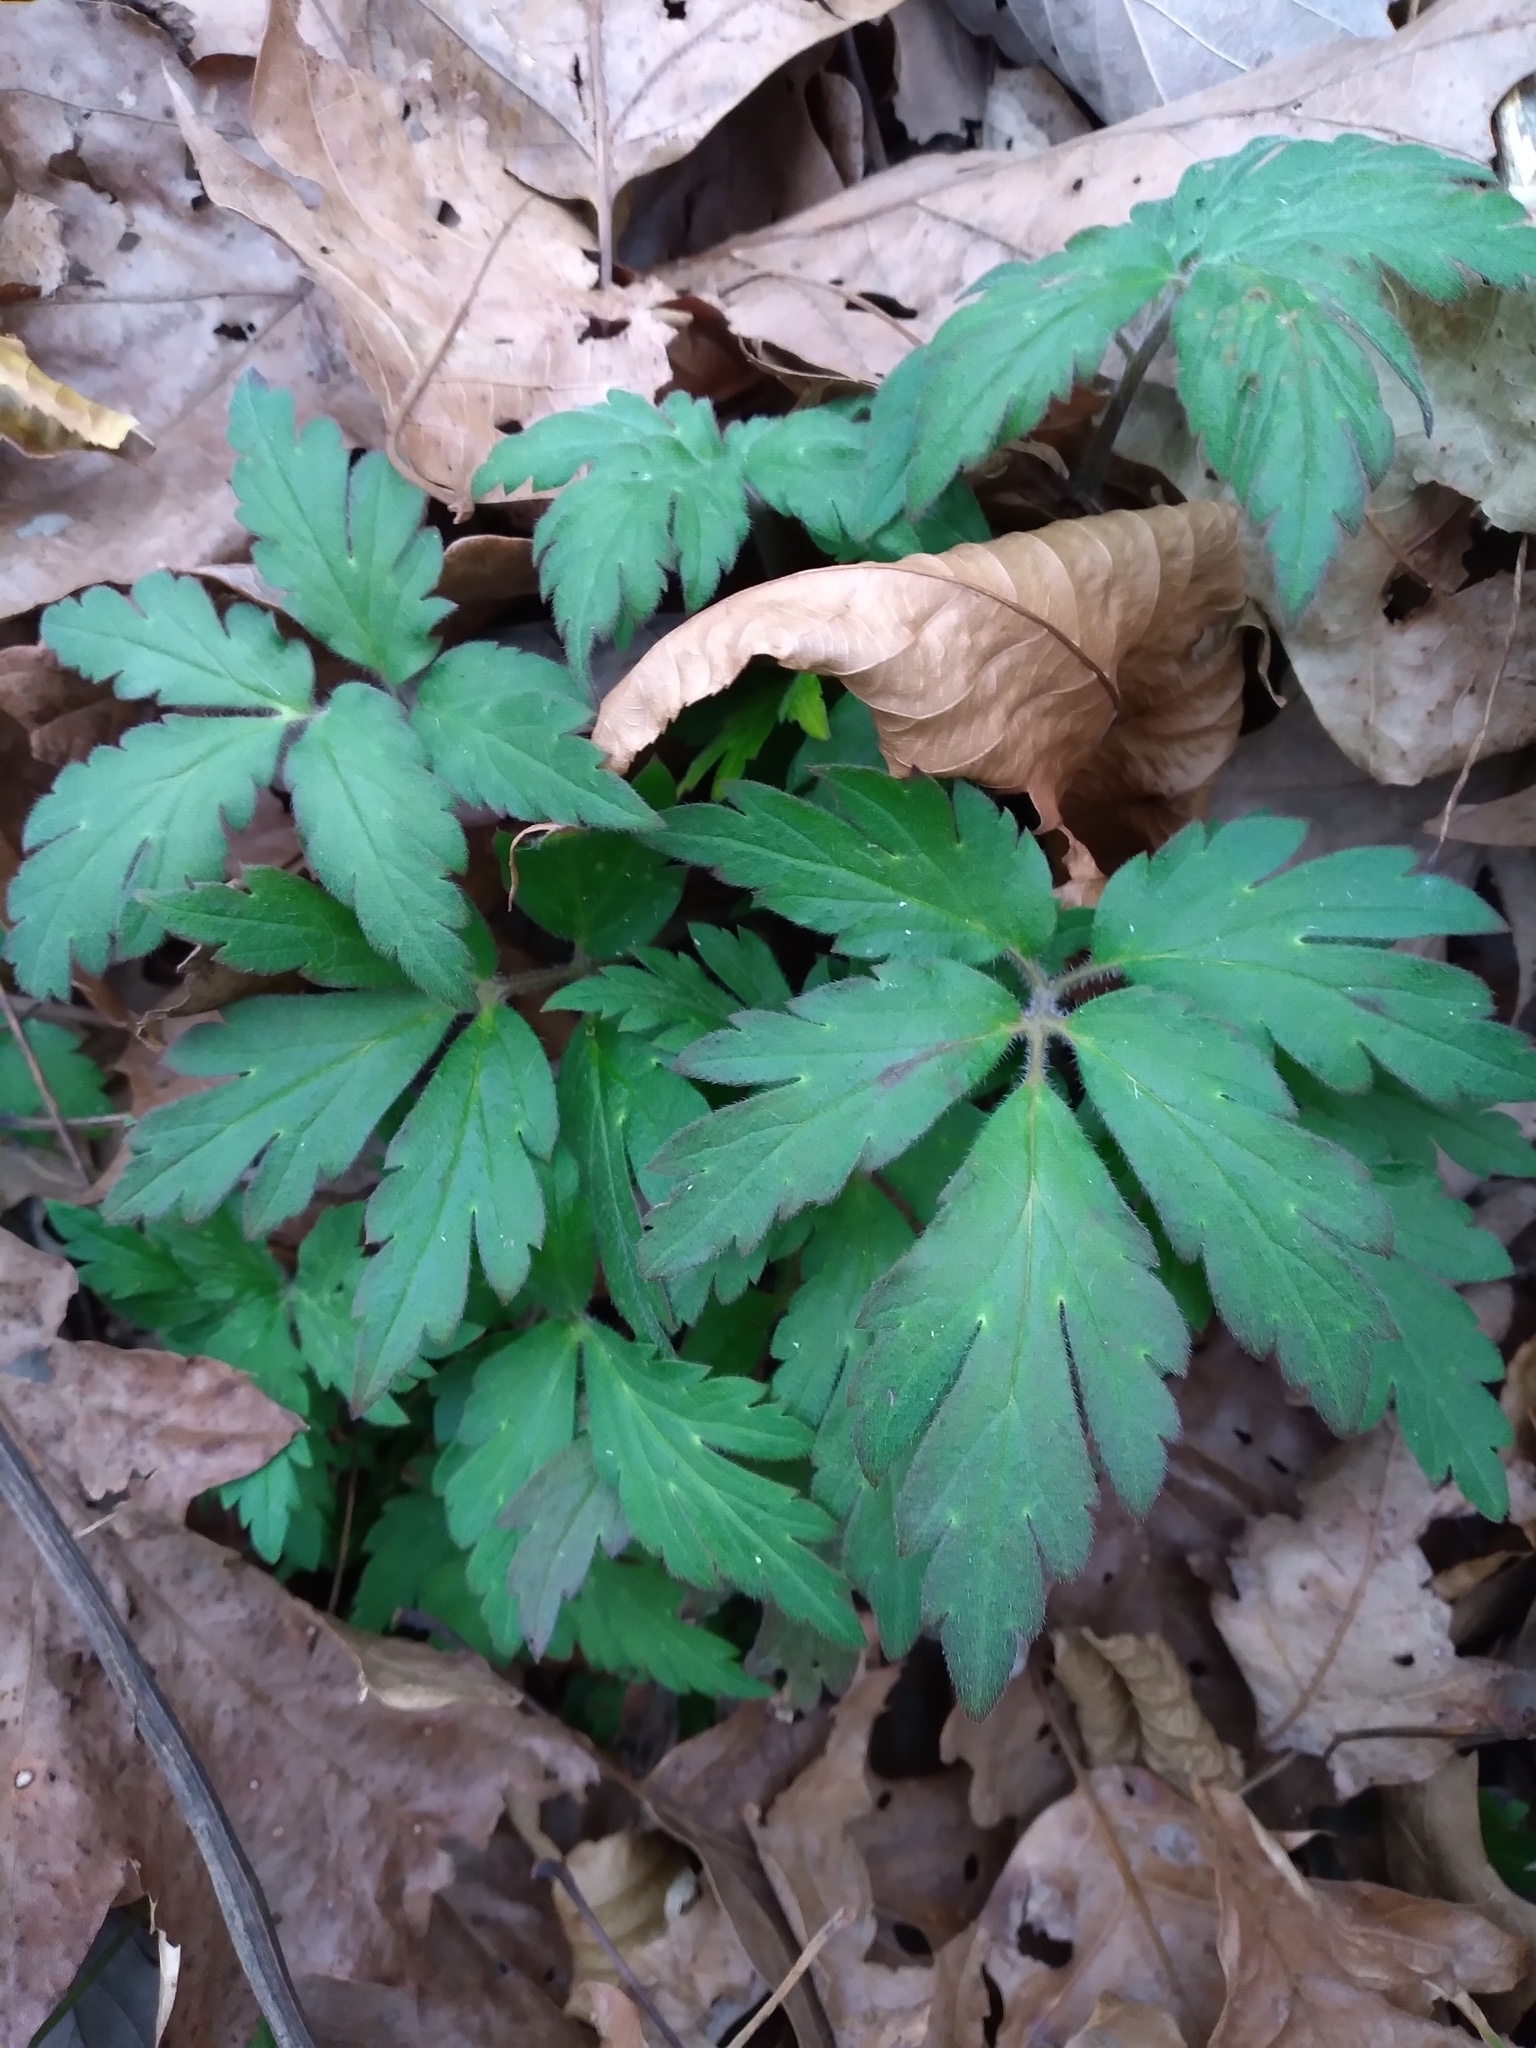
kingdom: Plantae
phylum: Tracheophyta
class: Magnoliopsida
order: Boraginales
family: Hydrophyllaceae
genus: Phacelia
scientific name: Phacelia bipinnatifida
